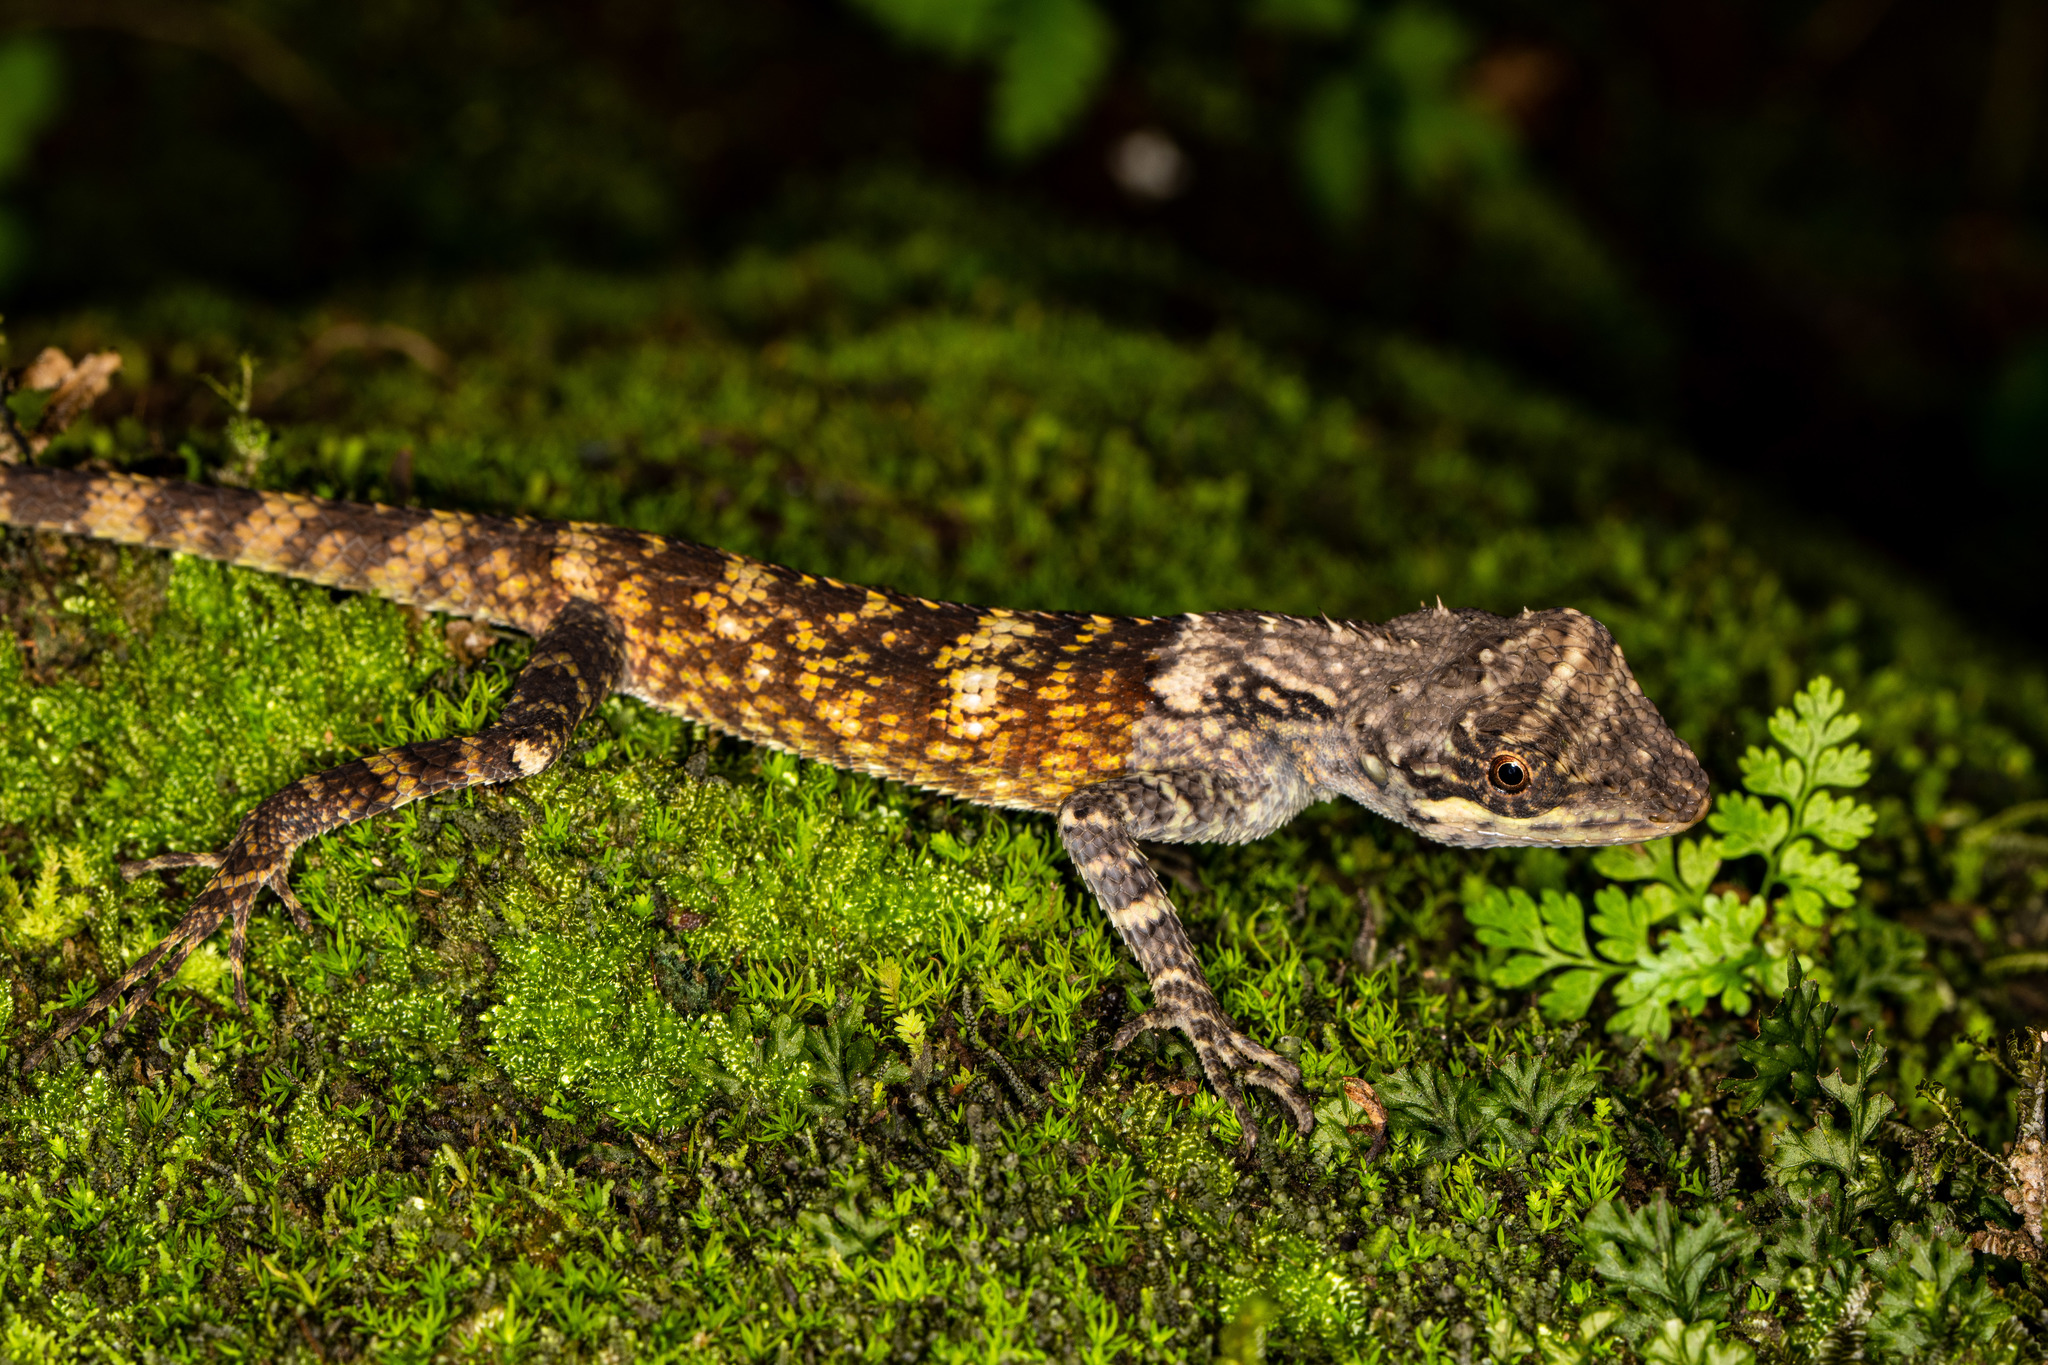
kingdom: Animalia
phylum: Chordata
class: Squamata
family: Agamidae
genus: Monilesaurus
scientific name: Monilesaurus montanus
